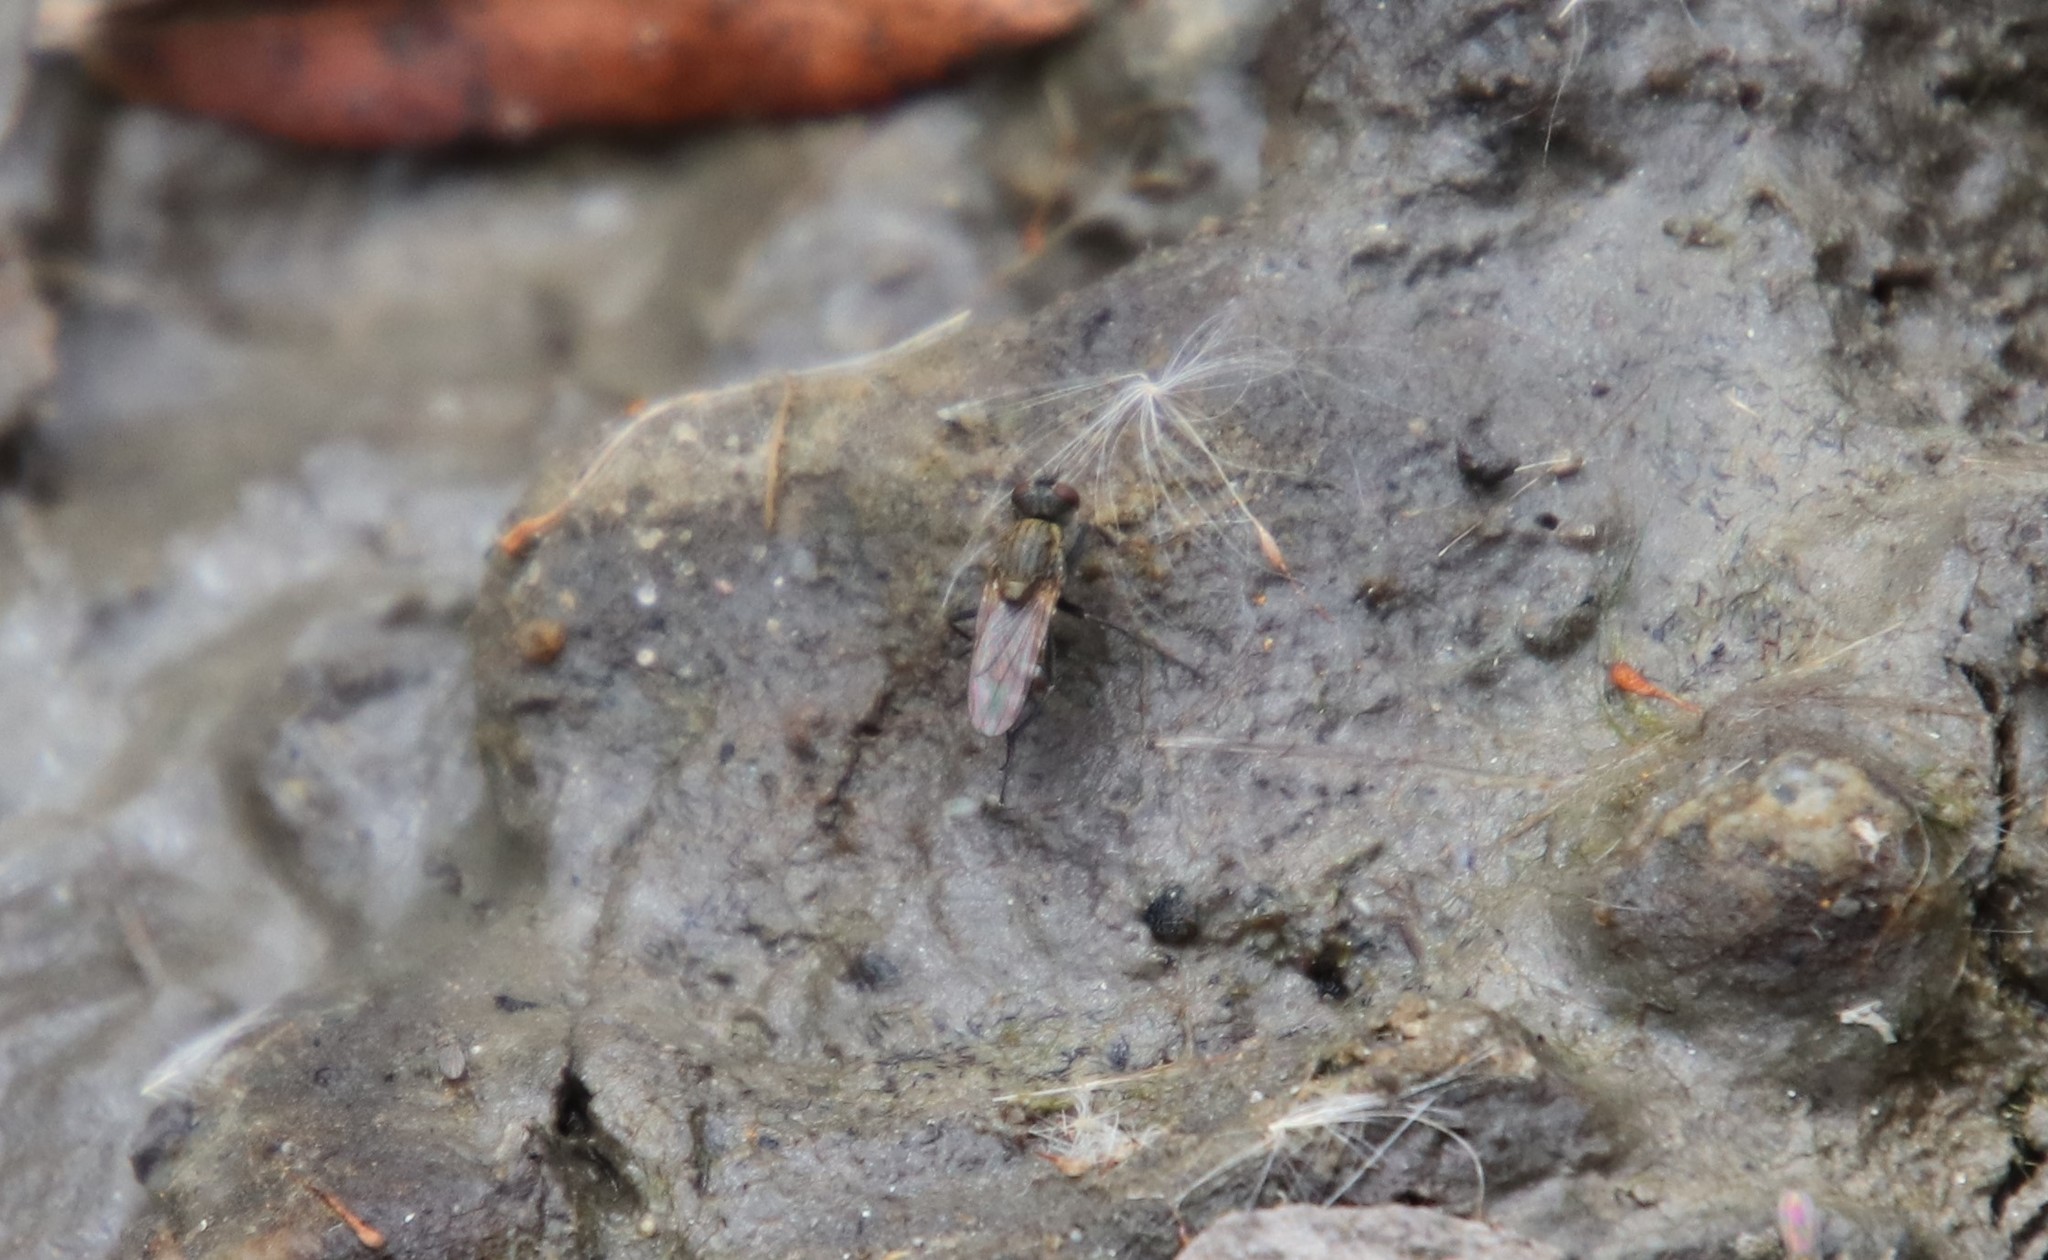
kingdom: Animalia
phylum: Arthropoda
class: Insecta
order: Diptera
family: Muscidae
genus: Lispe
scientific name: Lispe
